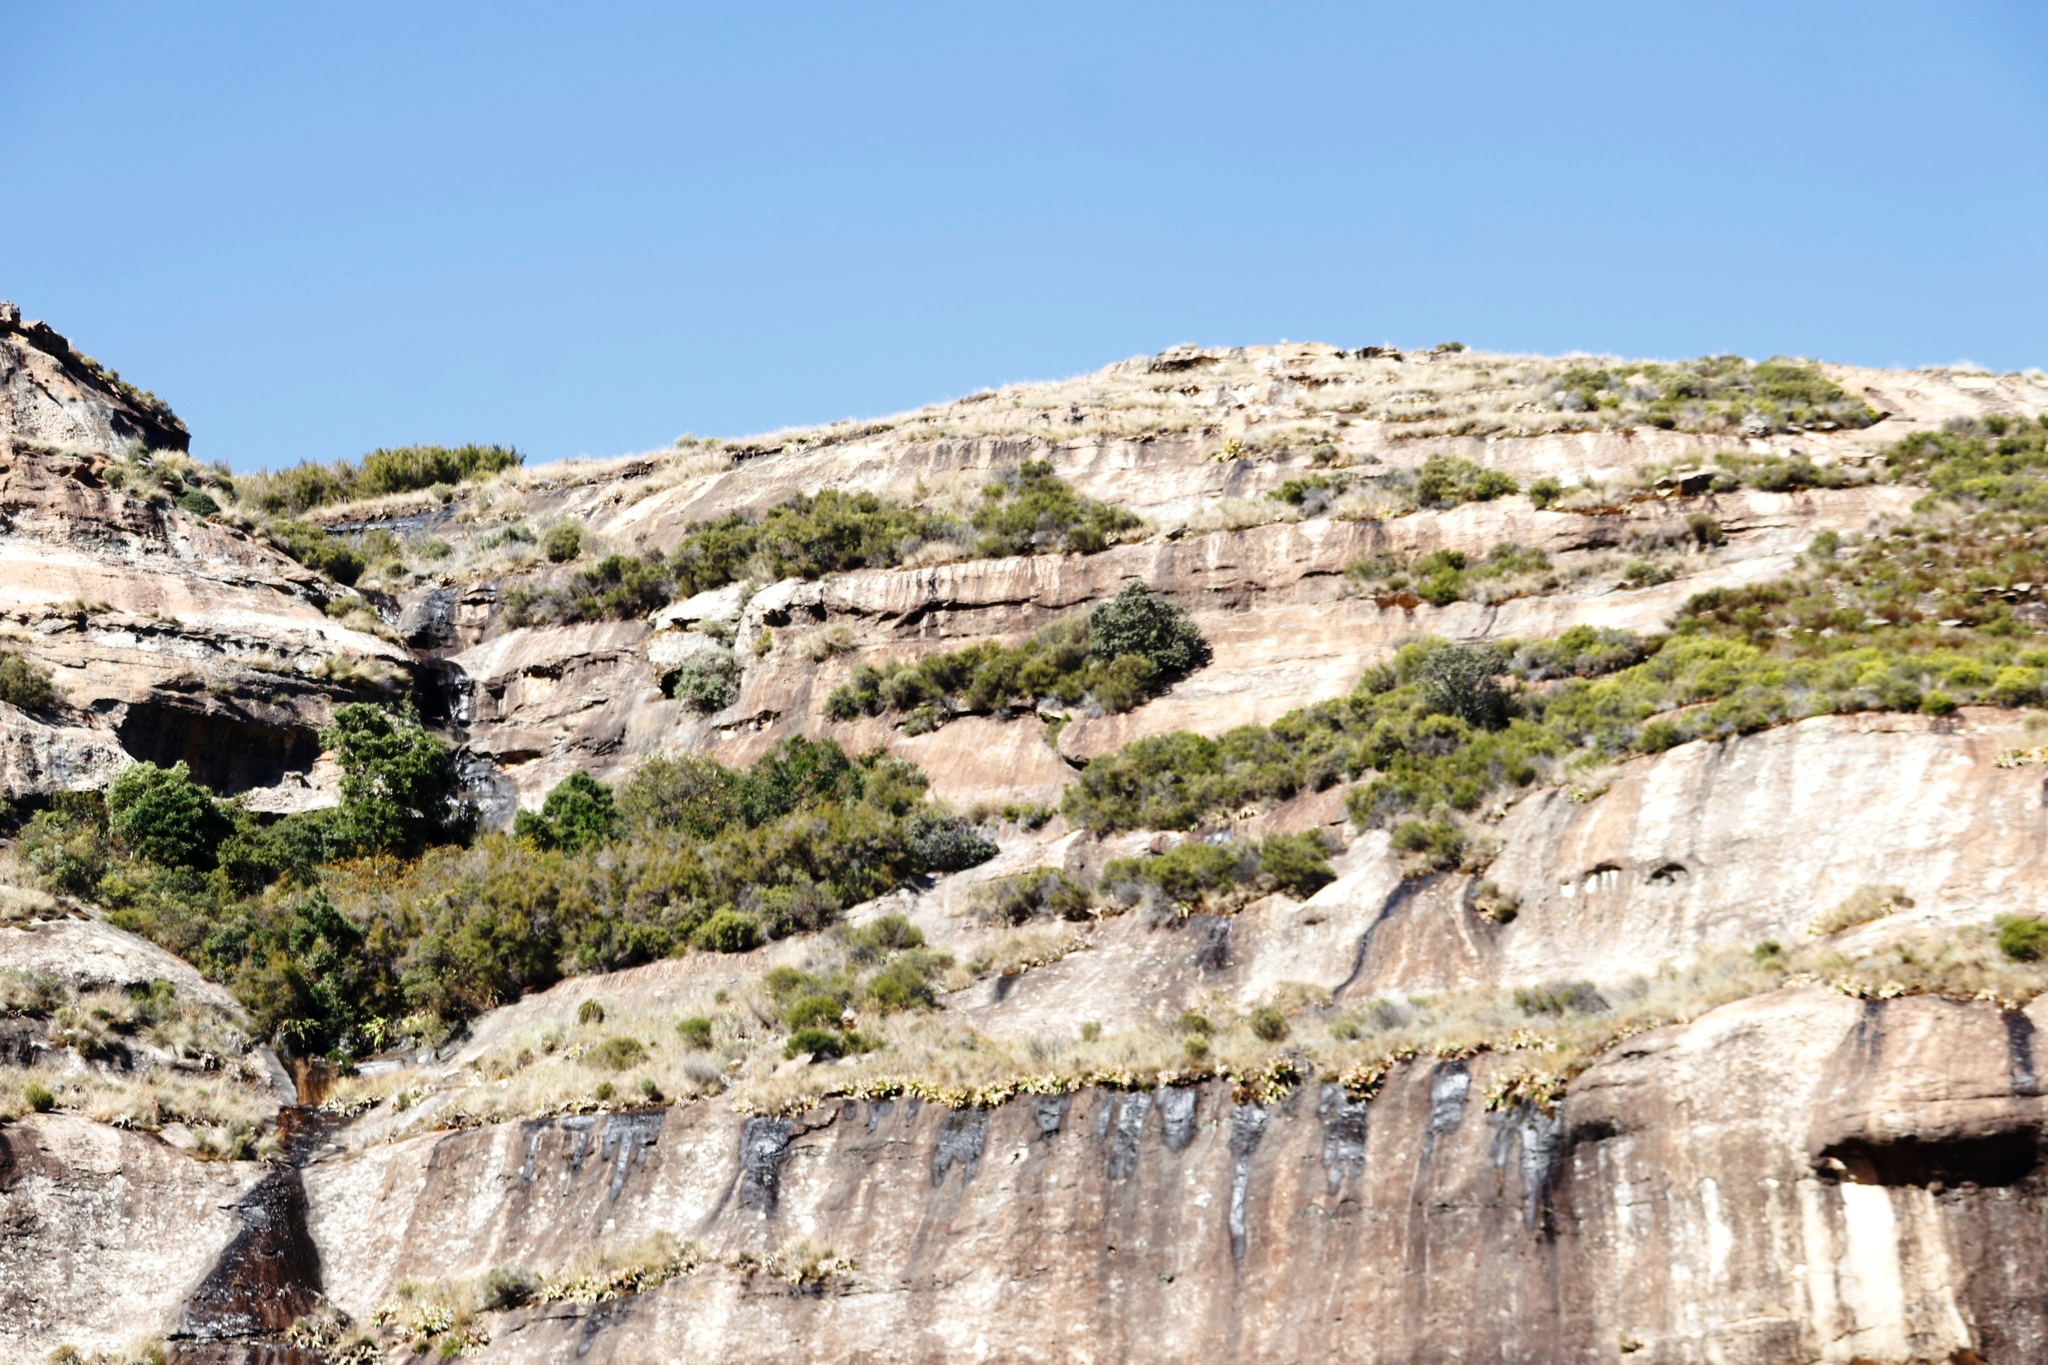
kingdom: Plantae
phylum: Tracheophyta
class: Magnoliopsida
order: Proteales
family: Proteaceae
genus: Protea
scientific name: Protea caffra
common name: Common sugarbush
